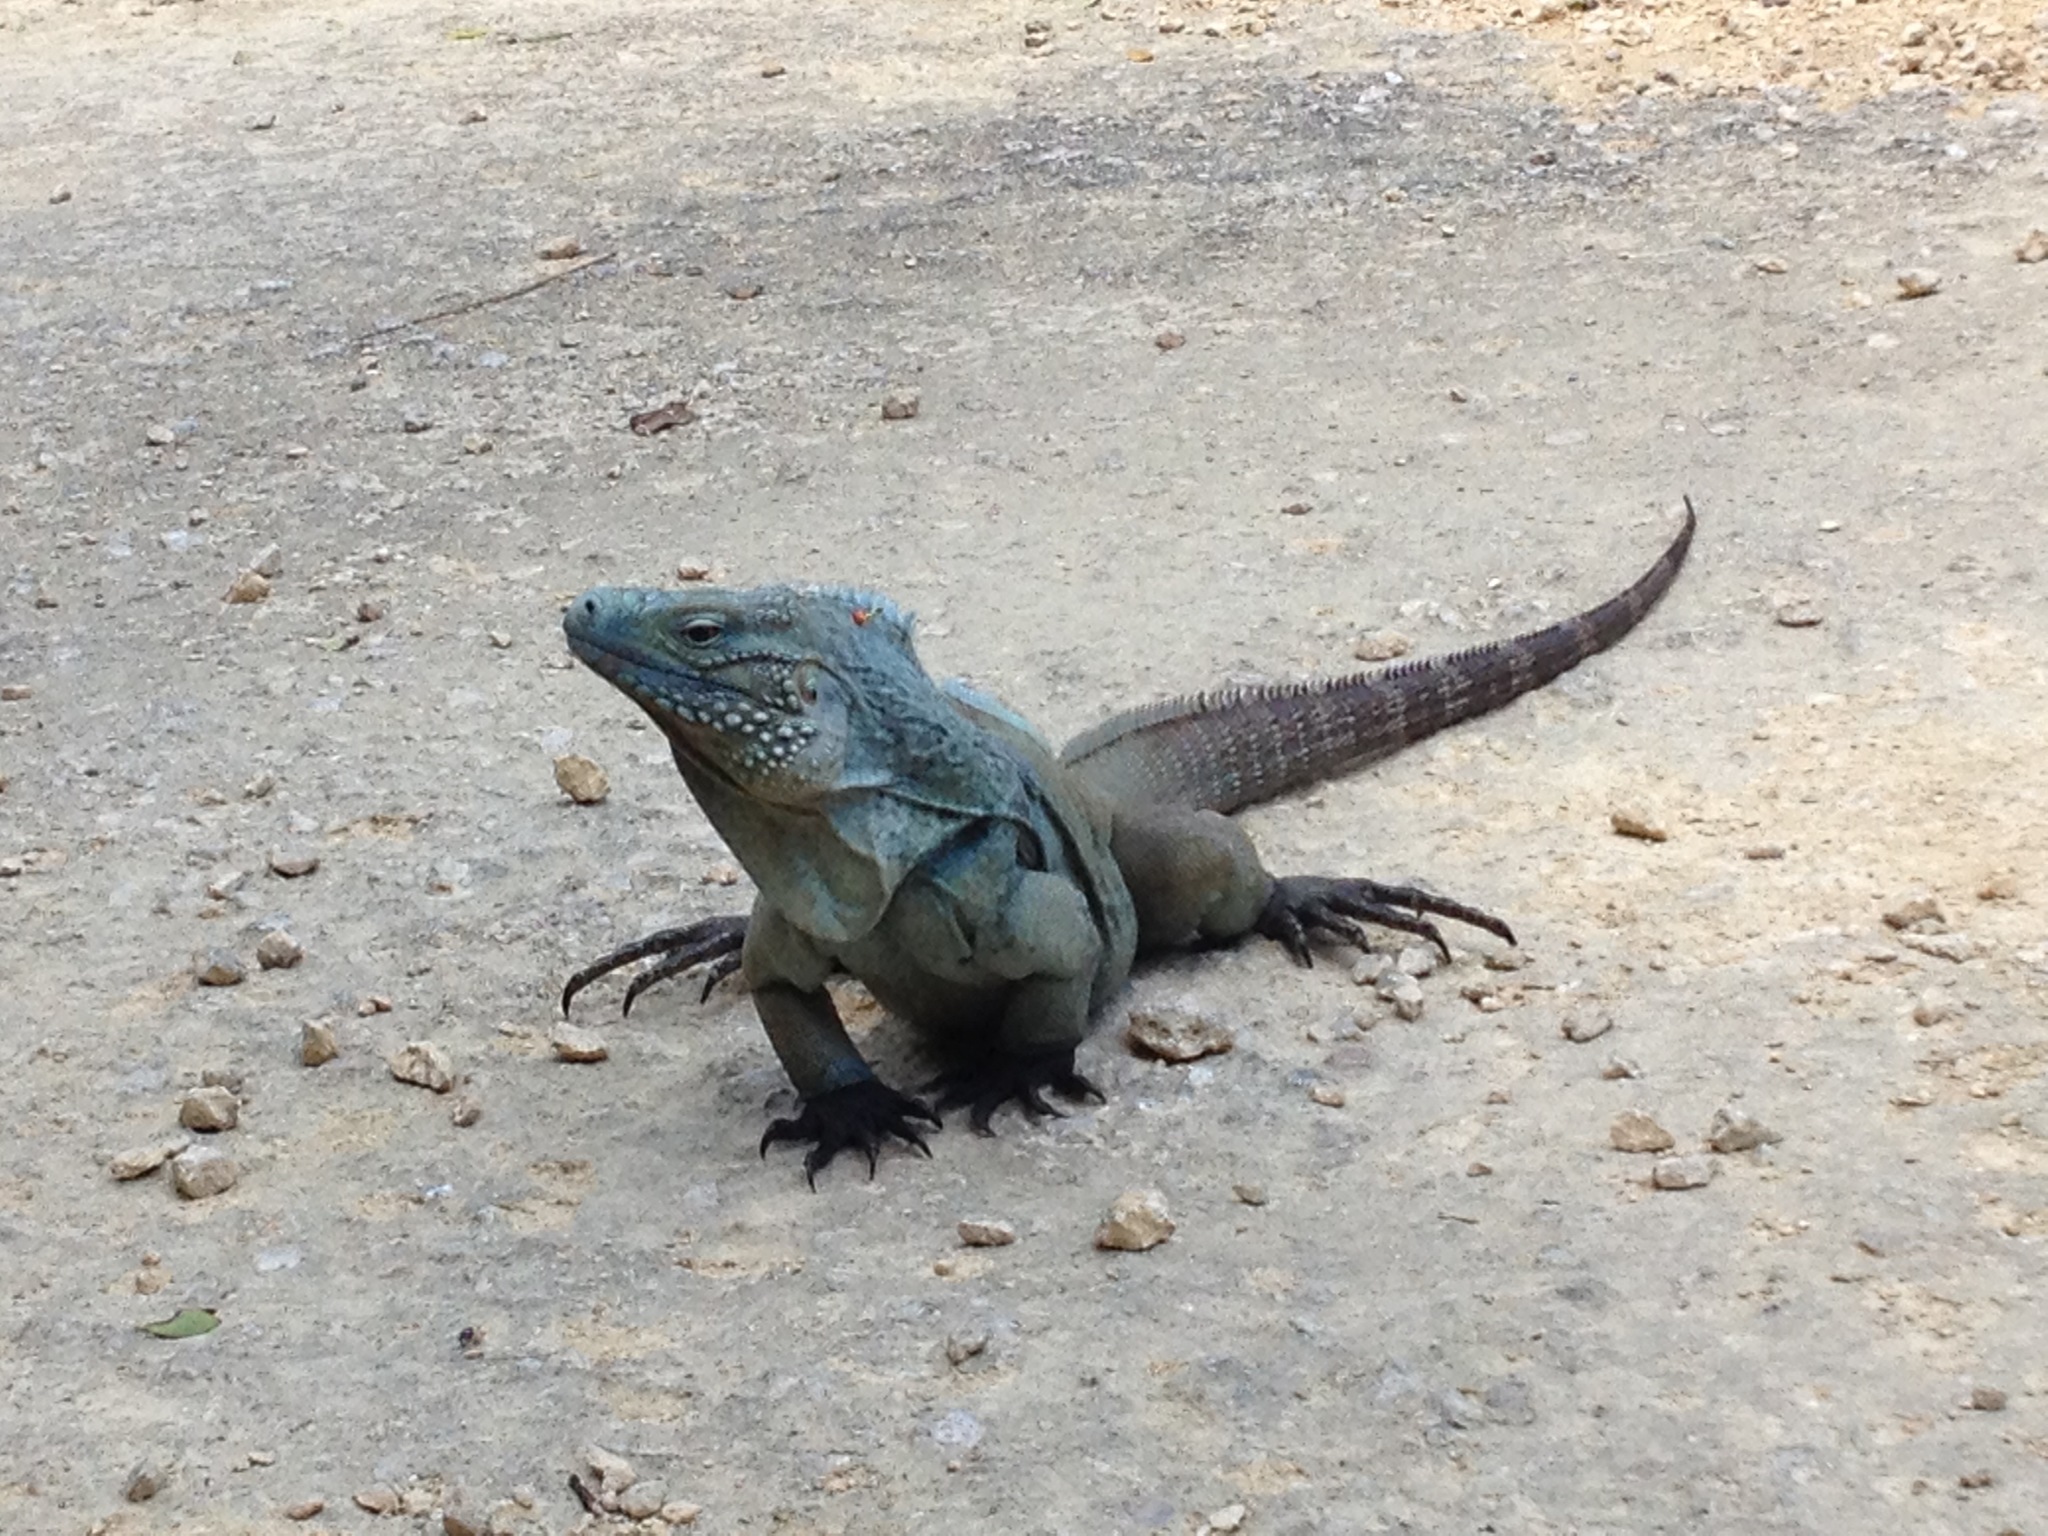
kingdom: Animalia
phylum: Chordata
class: Squamata
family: Iguanidae
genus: Cyclura
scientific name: Cyclura lewisi
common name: Grand cayman blue iguana
